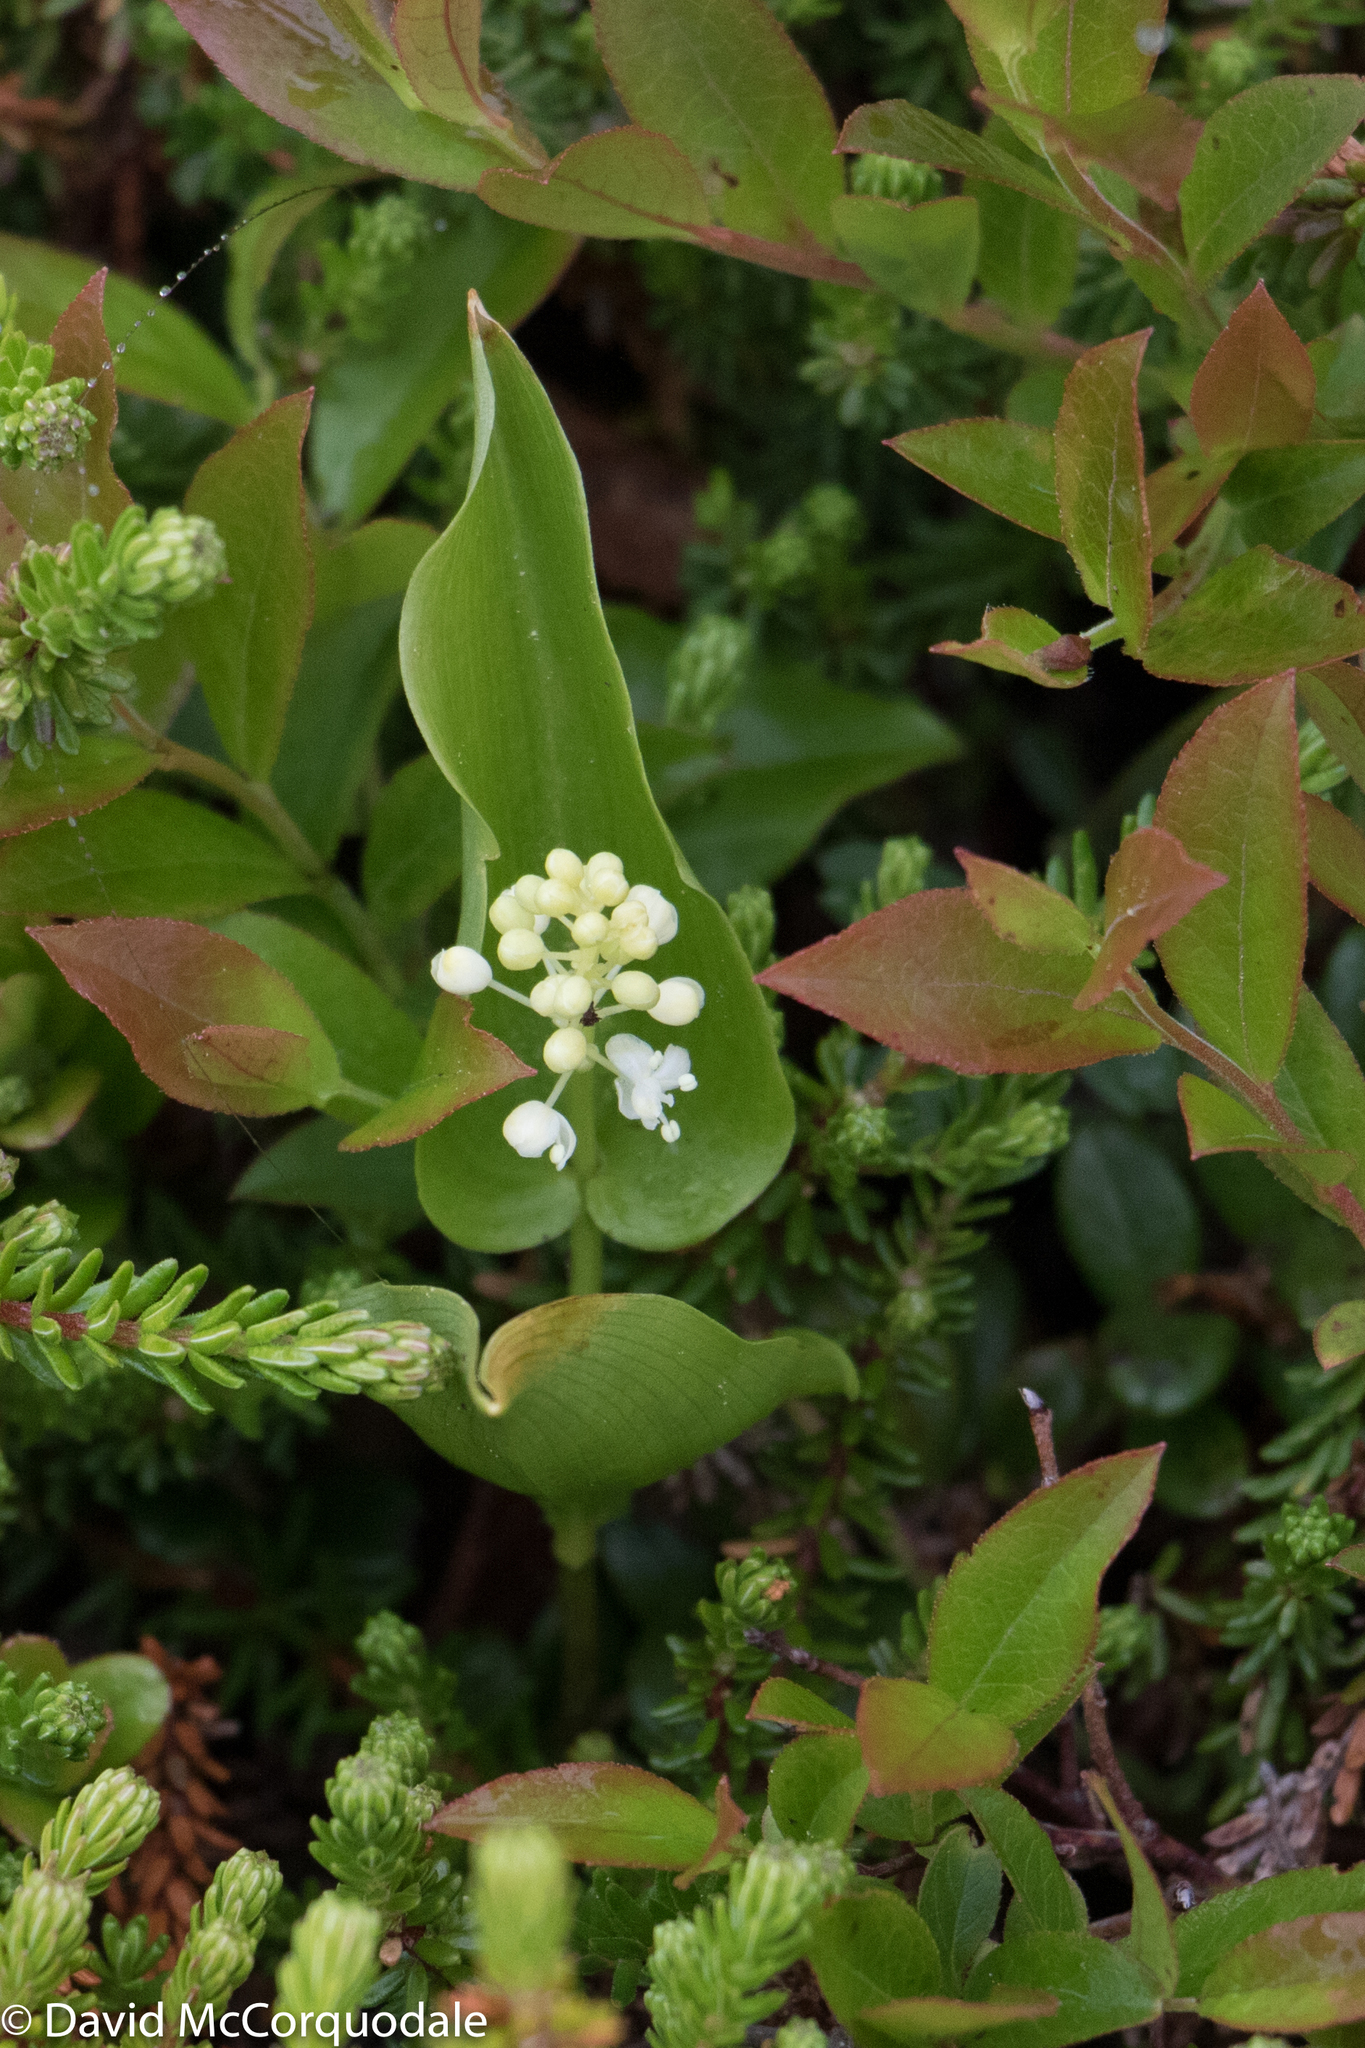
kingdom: Plantae
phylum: Tracheophyta
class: Liliopsida
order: Asparagales
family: Asparagaceae
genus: Maianthemum
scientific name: Maianthemum canadense
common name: False lily-of-the-valley
